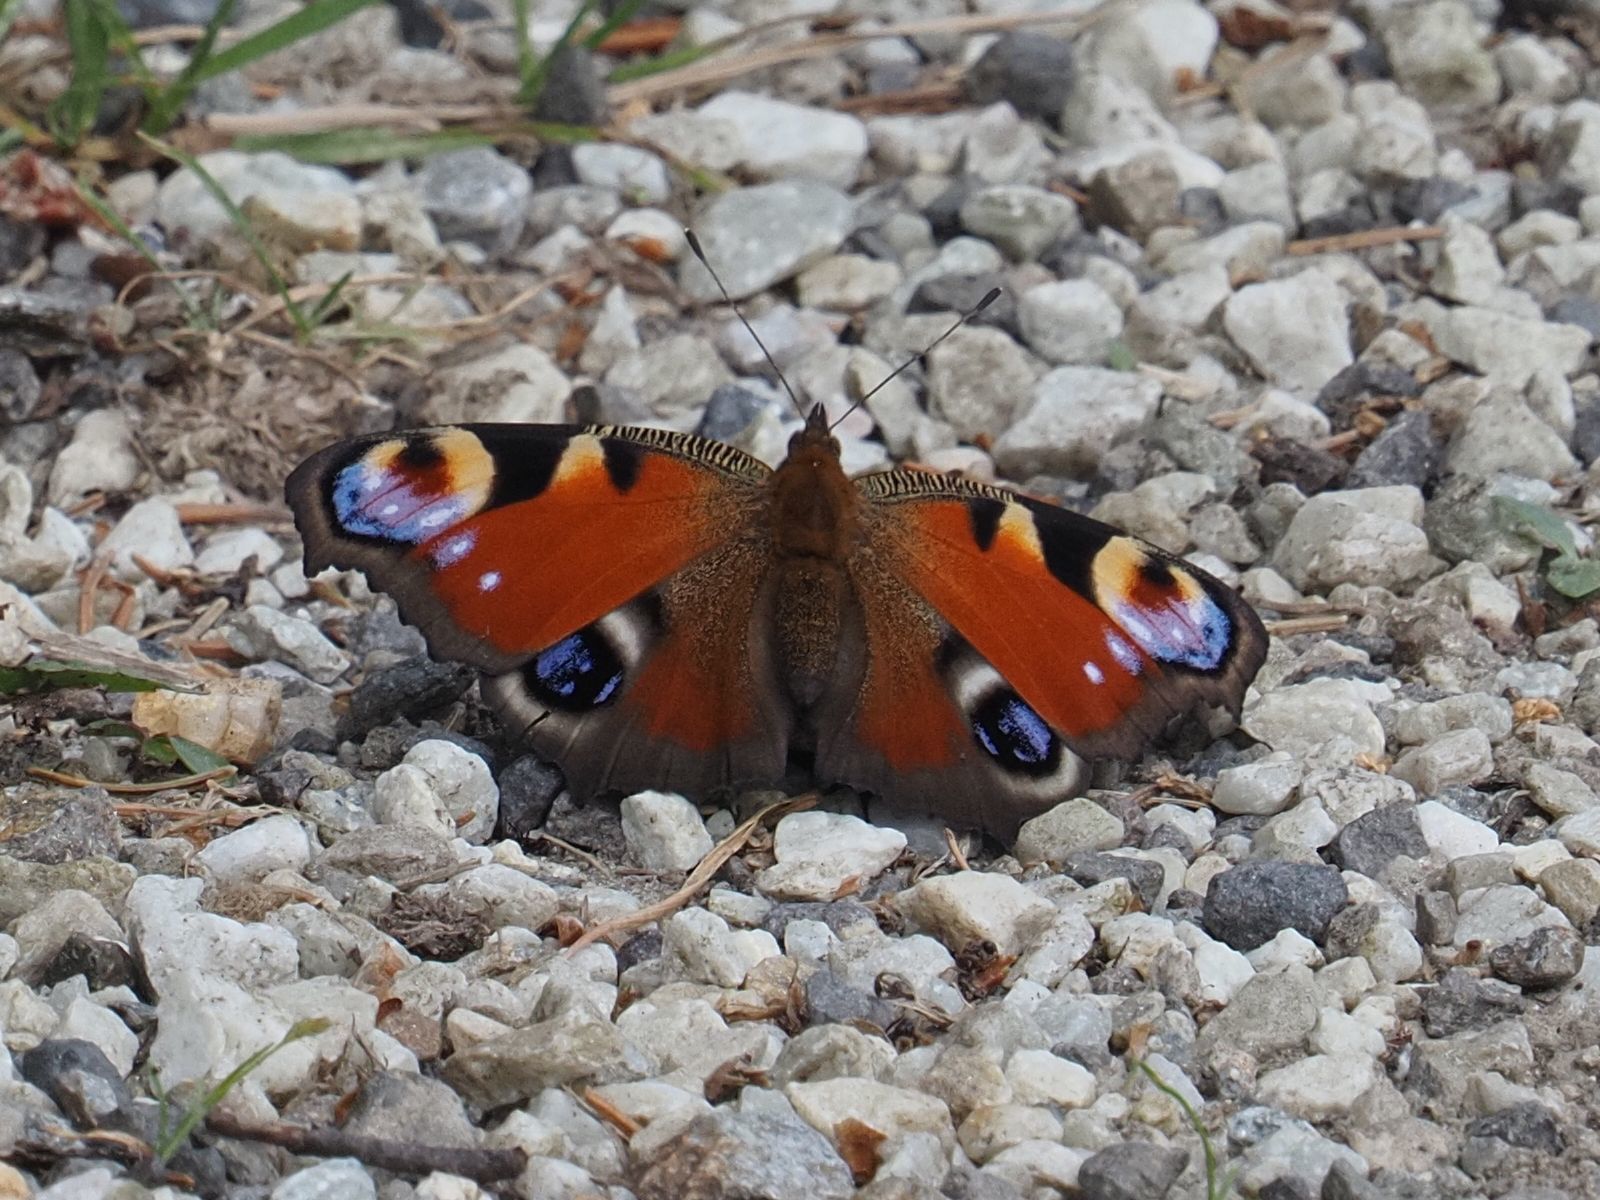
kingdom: Animalia
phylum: Arthropoda
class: Insecta
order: Lepidoptera
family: Nymphalidae
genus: Aglais
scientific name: Aglais io
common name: Peacock
